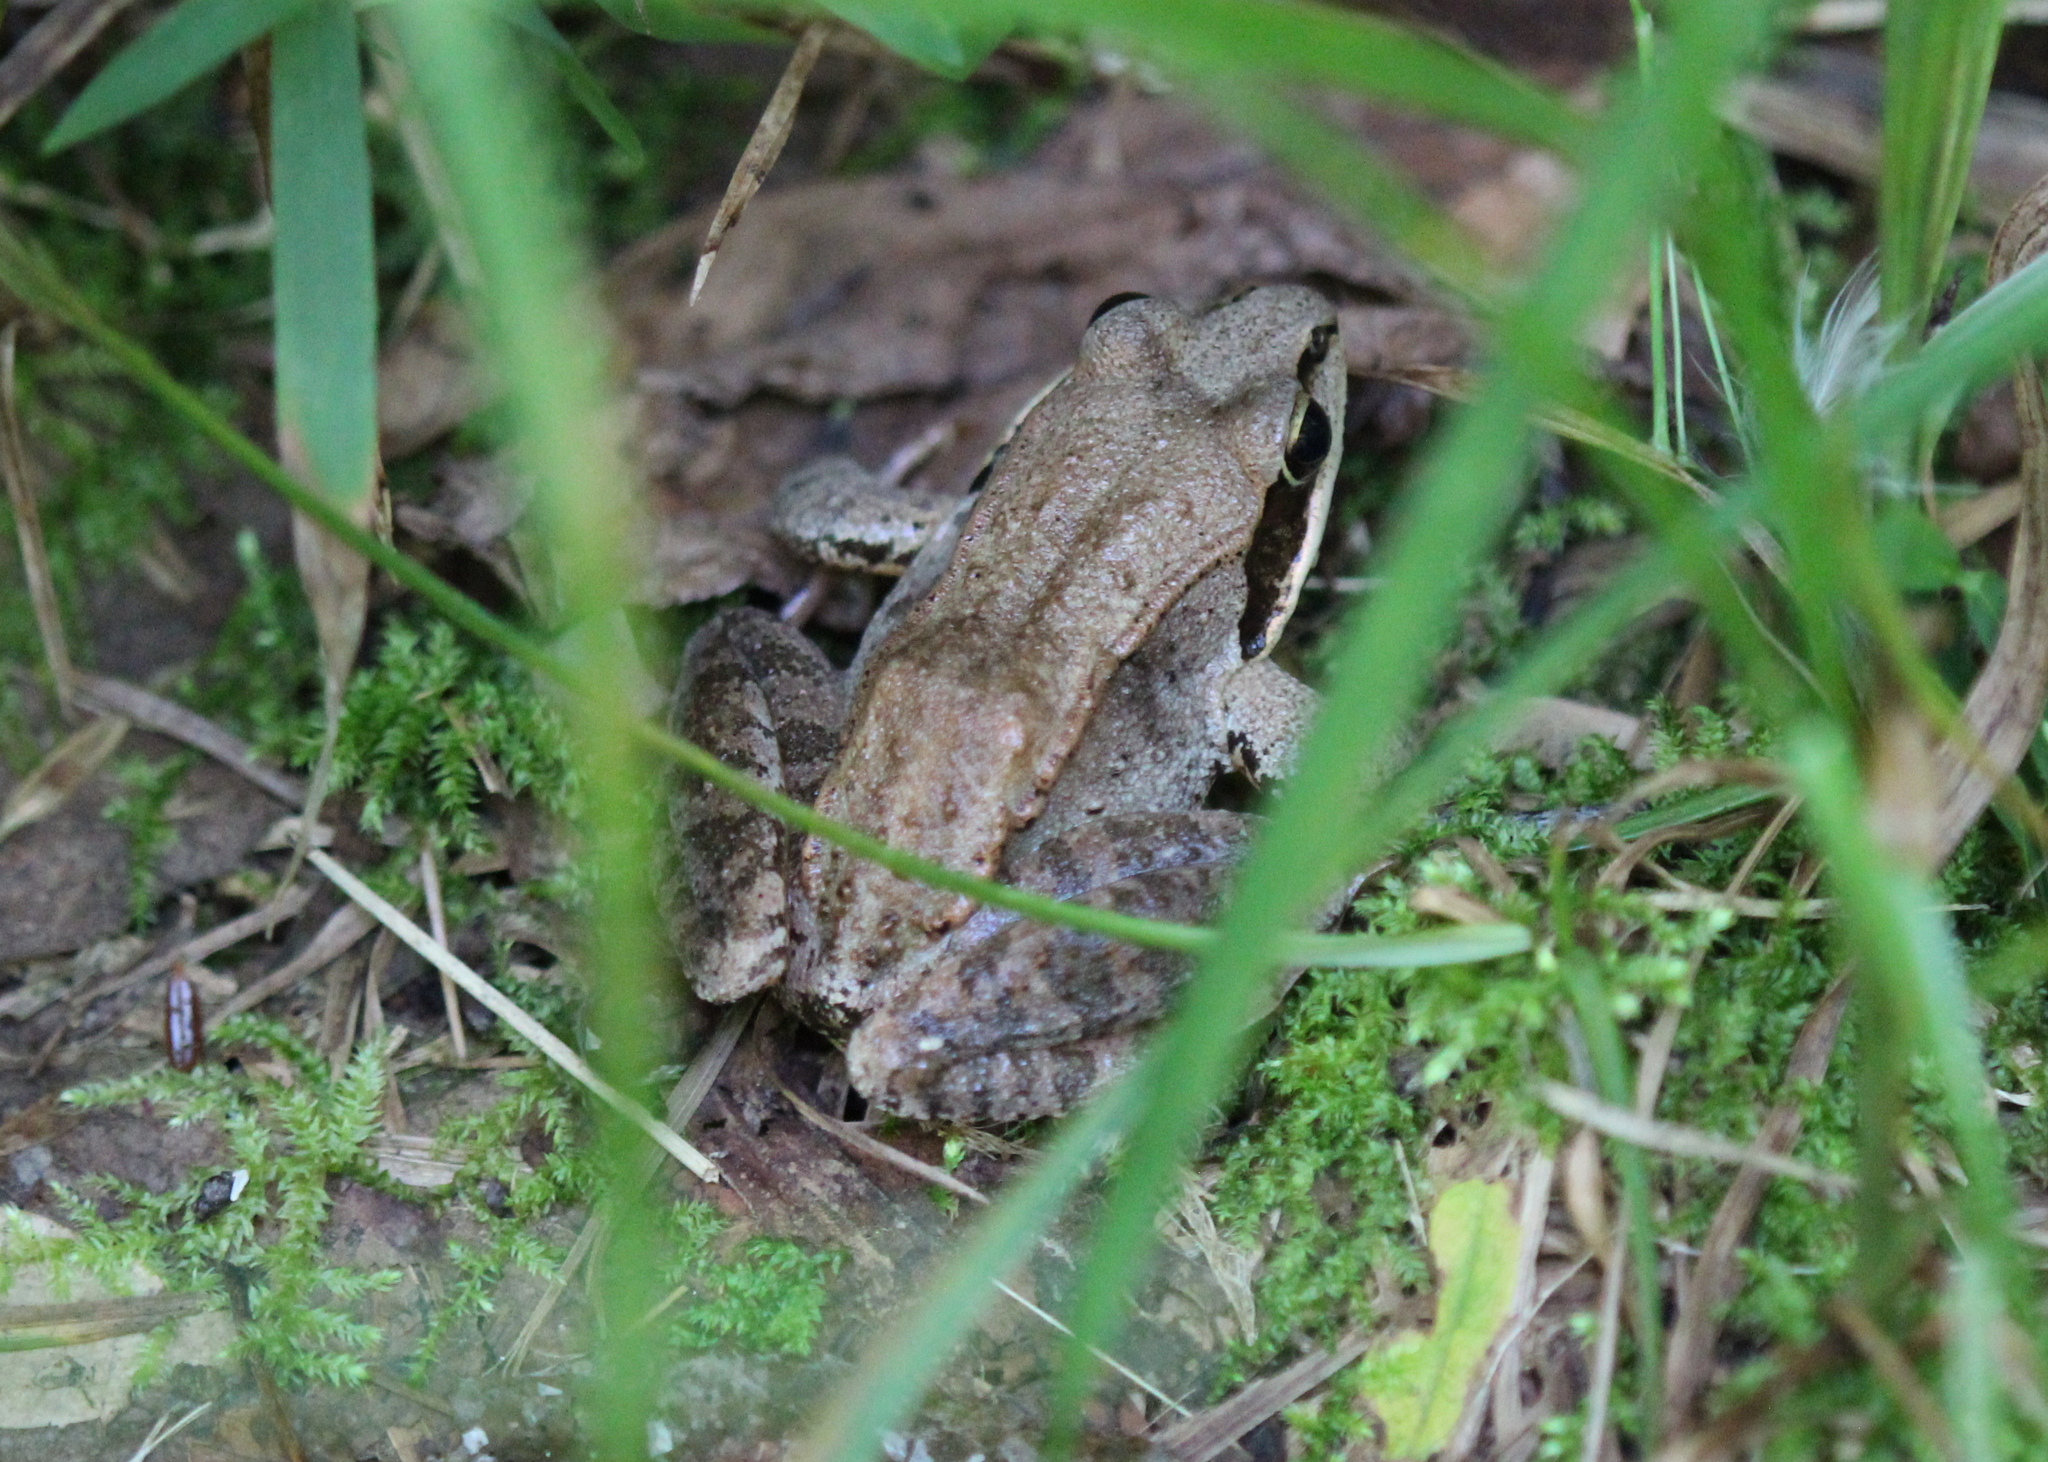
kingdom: Animalia
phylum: Chordata
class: Amphibia
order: Anura
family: Ranidae
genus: Lithobates
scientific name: Lithobates sylvaticus
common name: Wood frog
